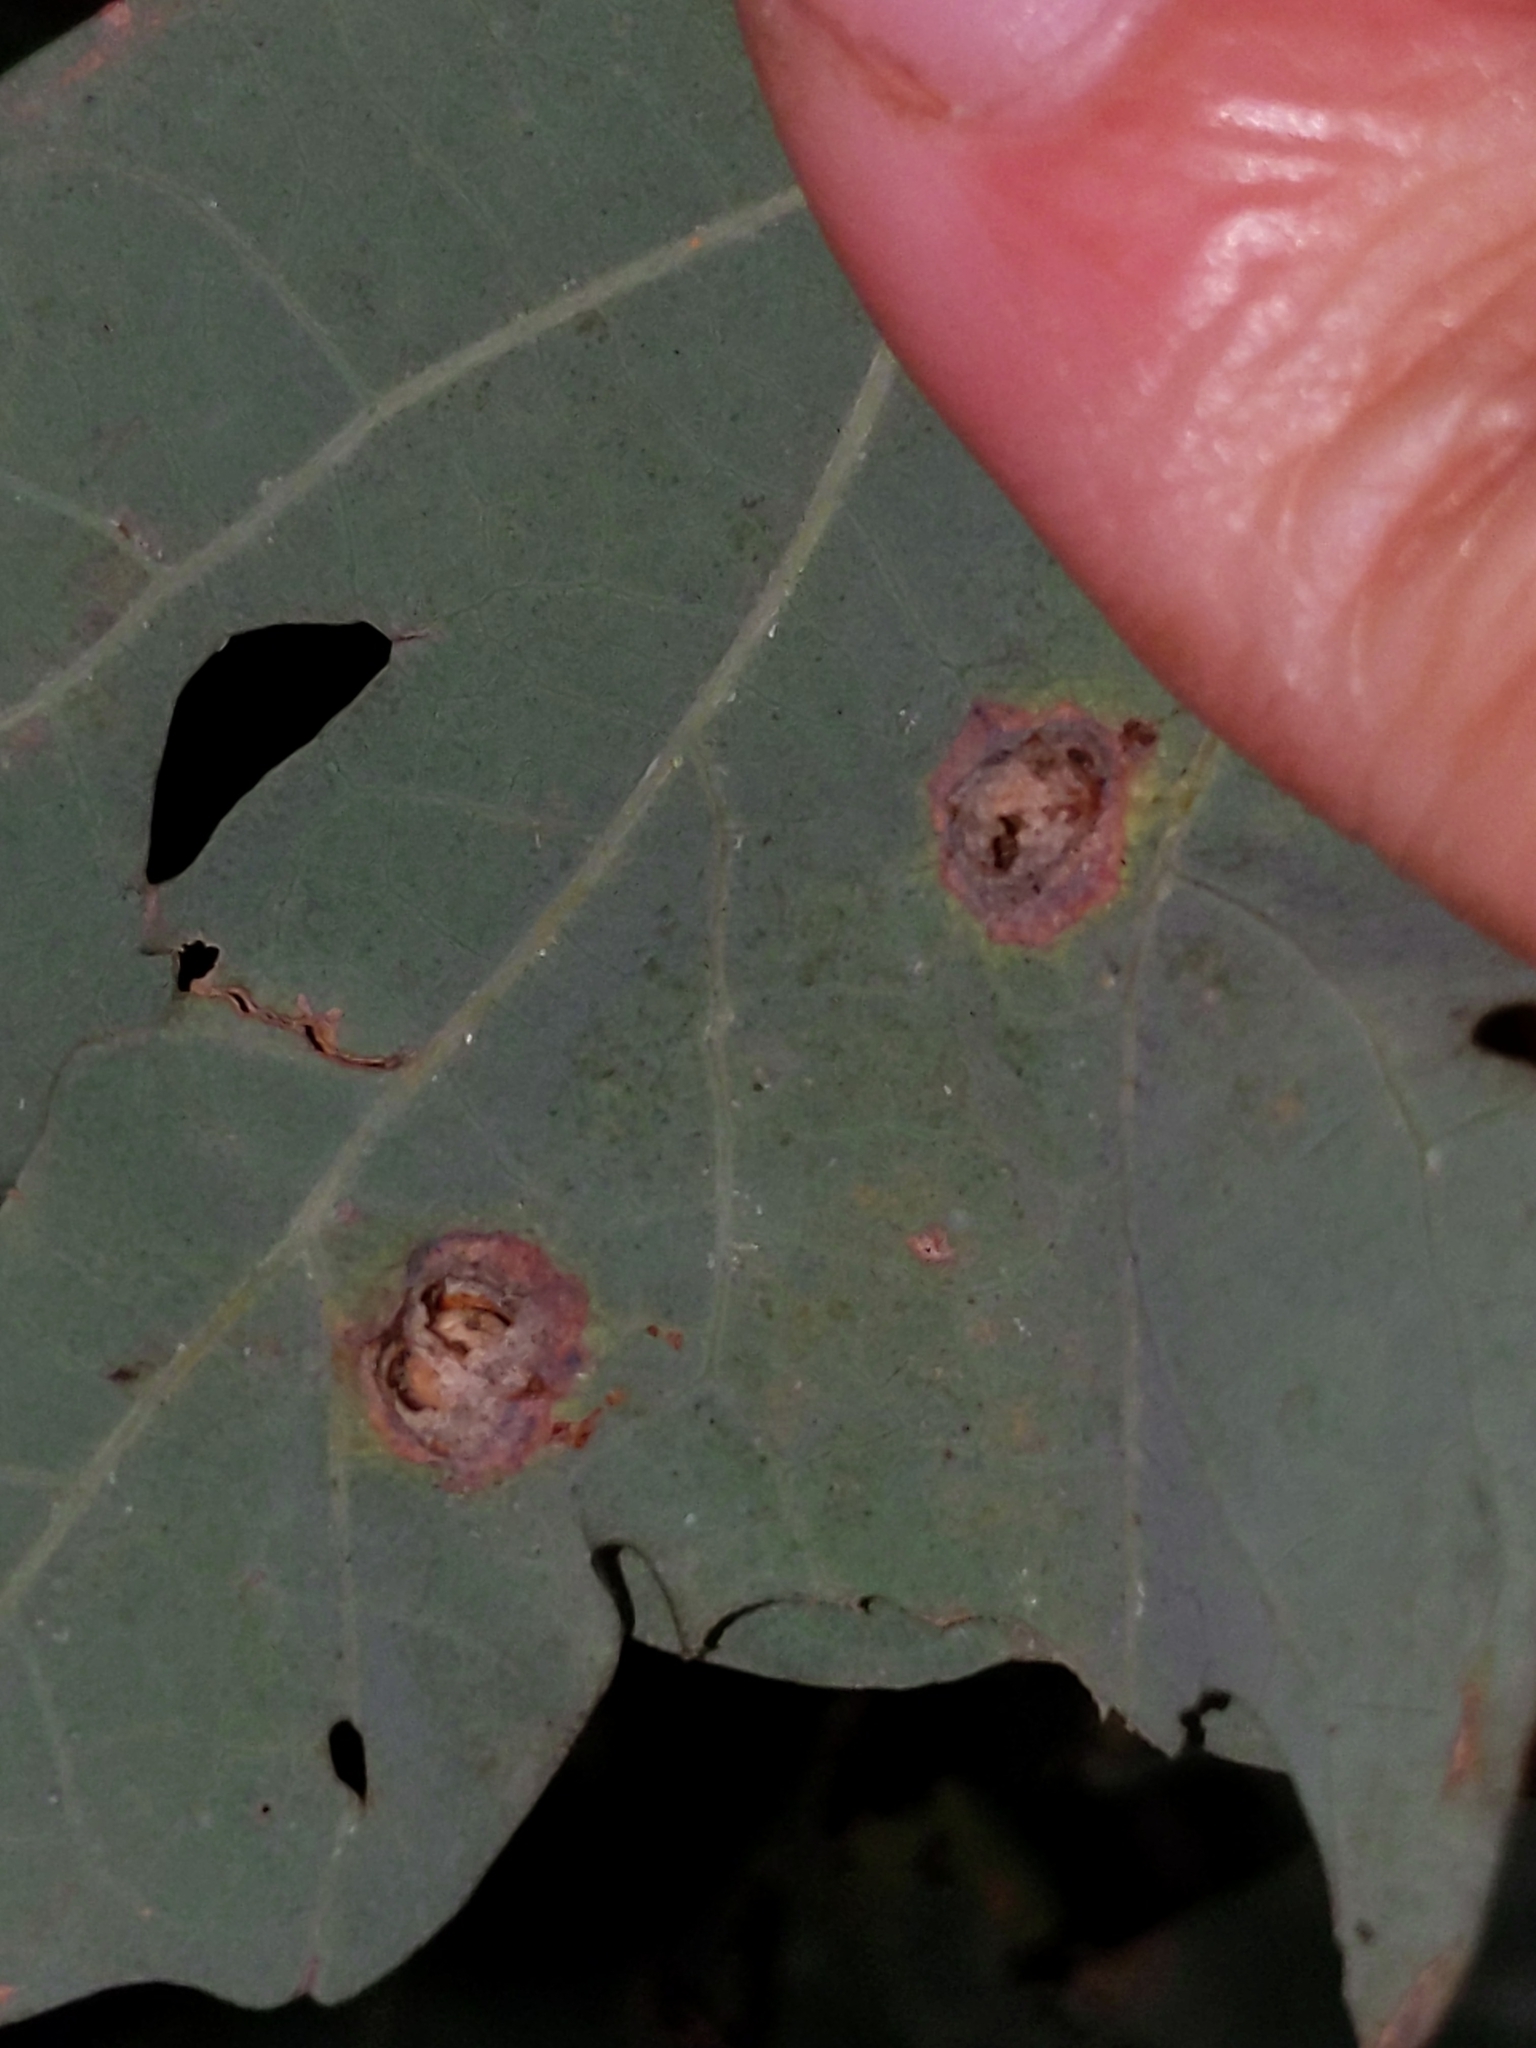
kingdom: Animalia
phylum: Arthropoda
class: Insecta
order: Hymenoptera
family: Cynipidae
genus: Callirhytis
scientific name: Callirhytis
